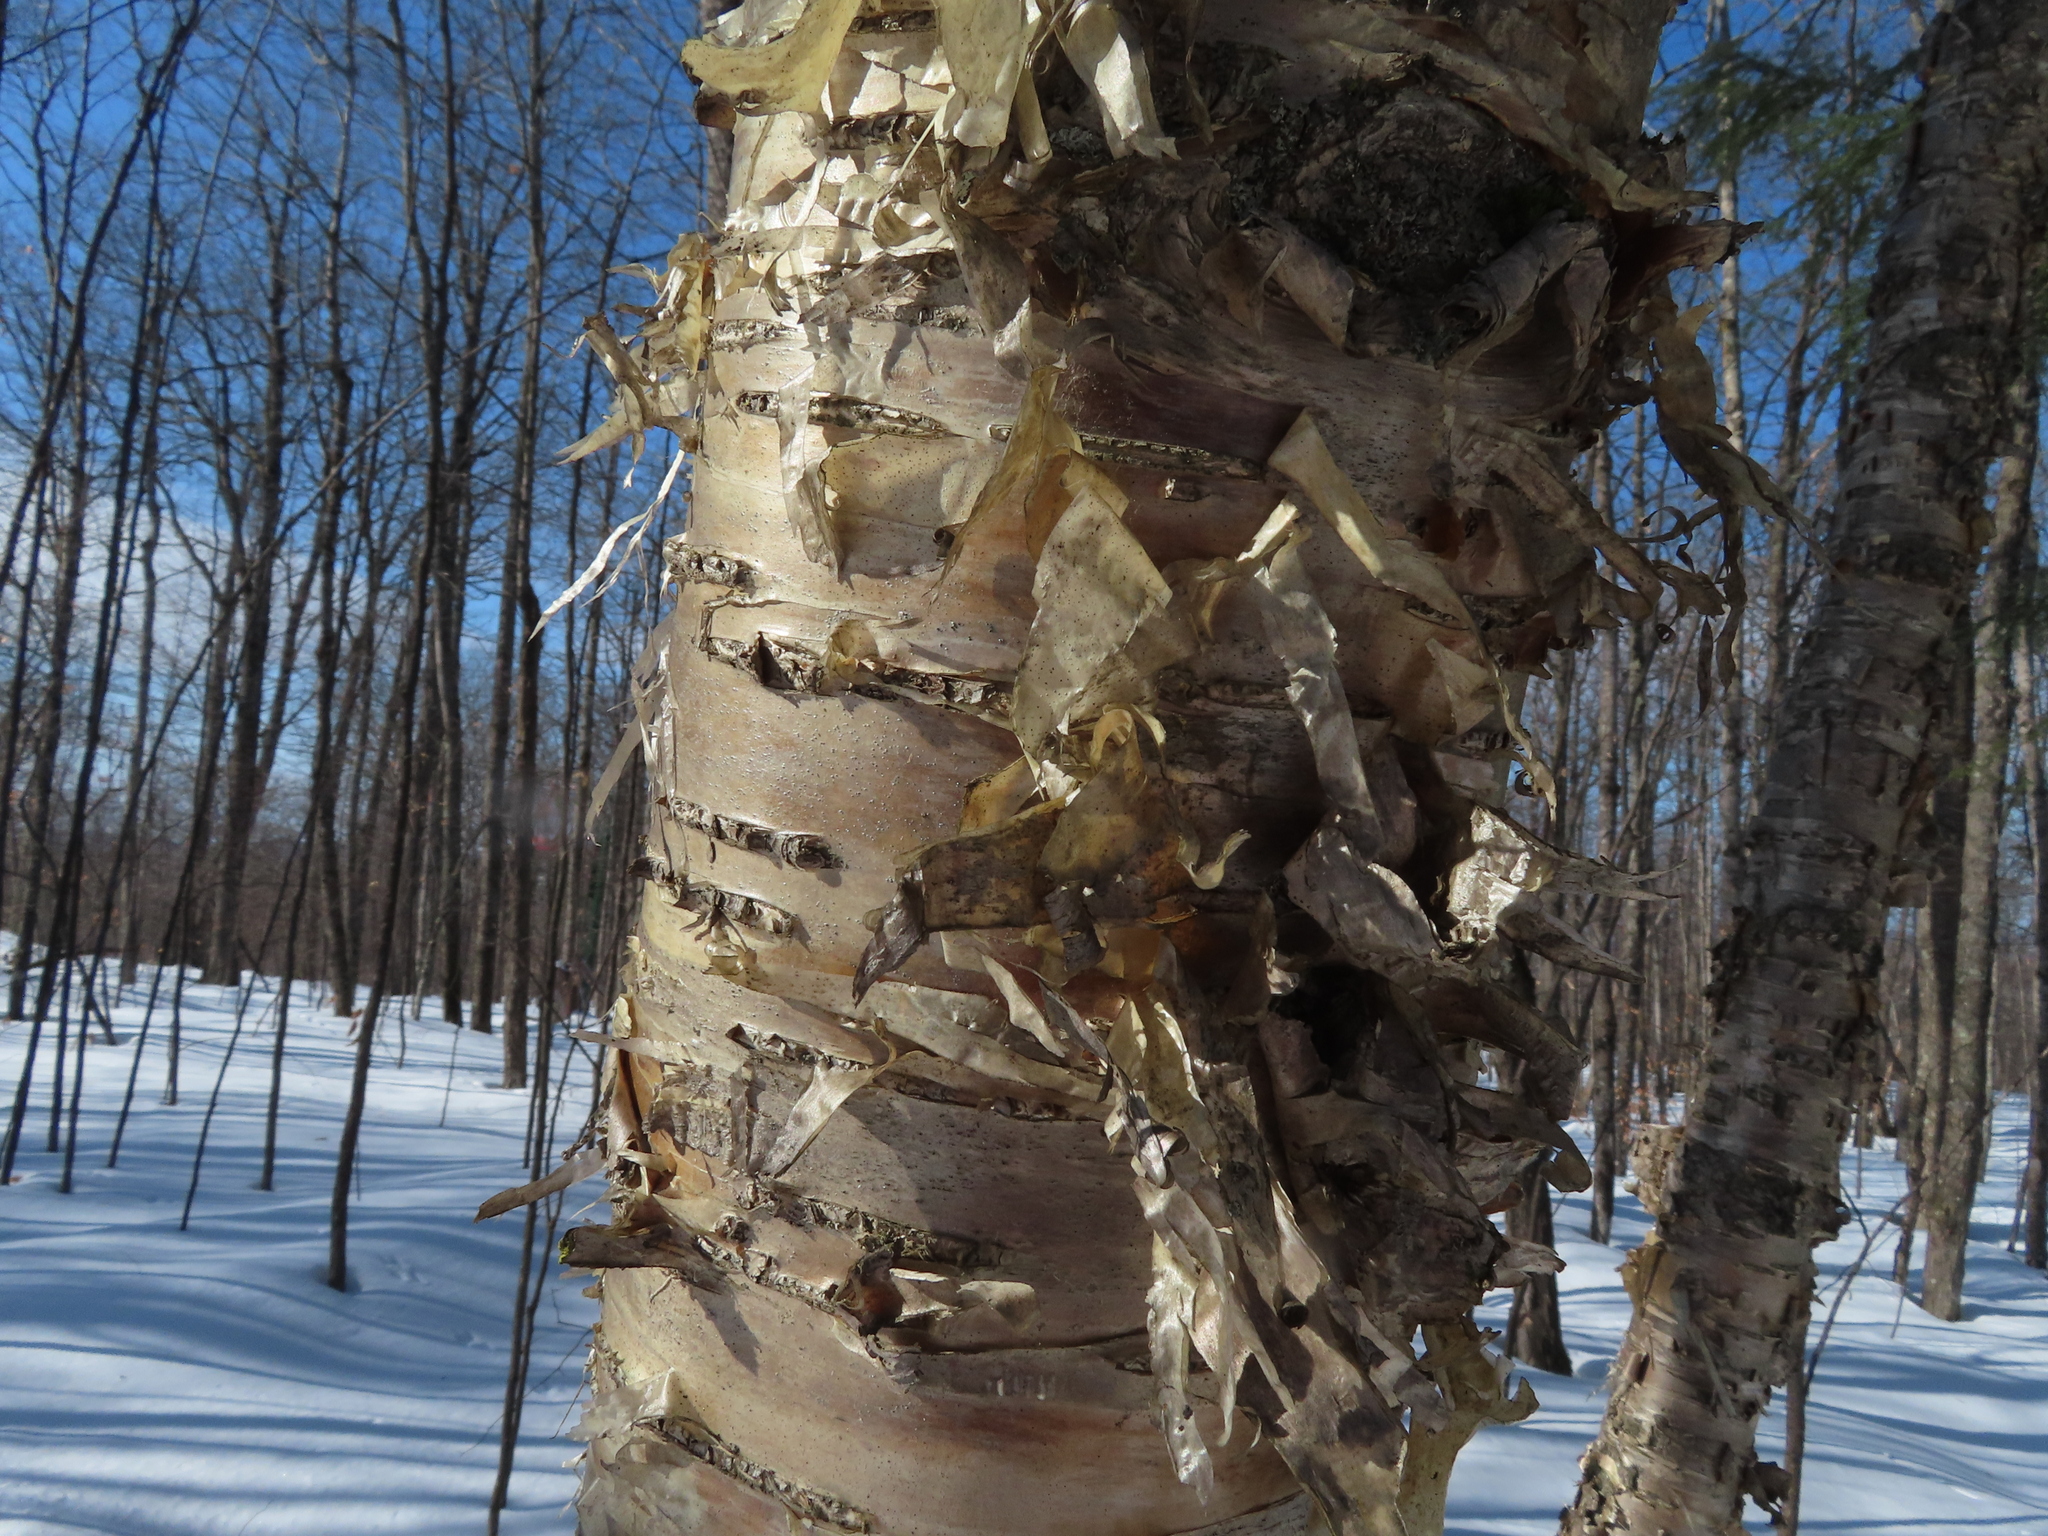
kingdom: Plantae
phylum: Tracheophyta
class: Magnoliopsida
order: Fagales
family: Betulaceae
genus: Betula
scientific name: Betula alleghaniensis
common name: Yellow birch
